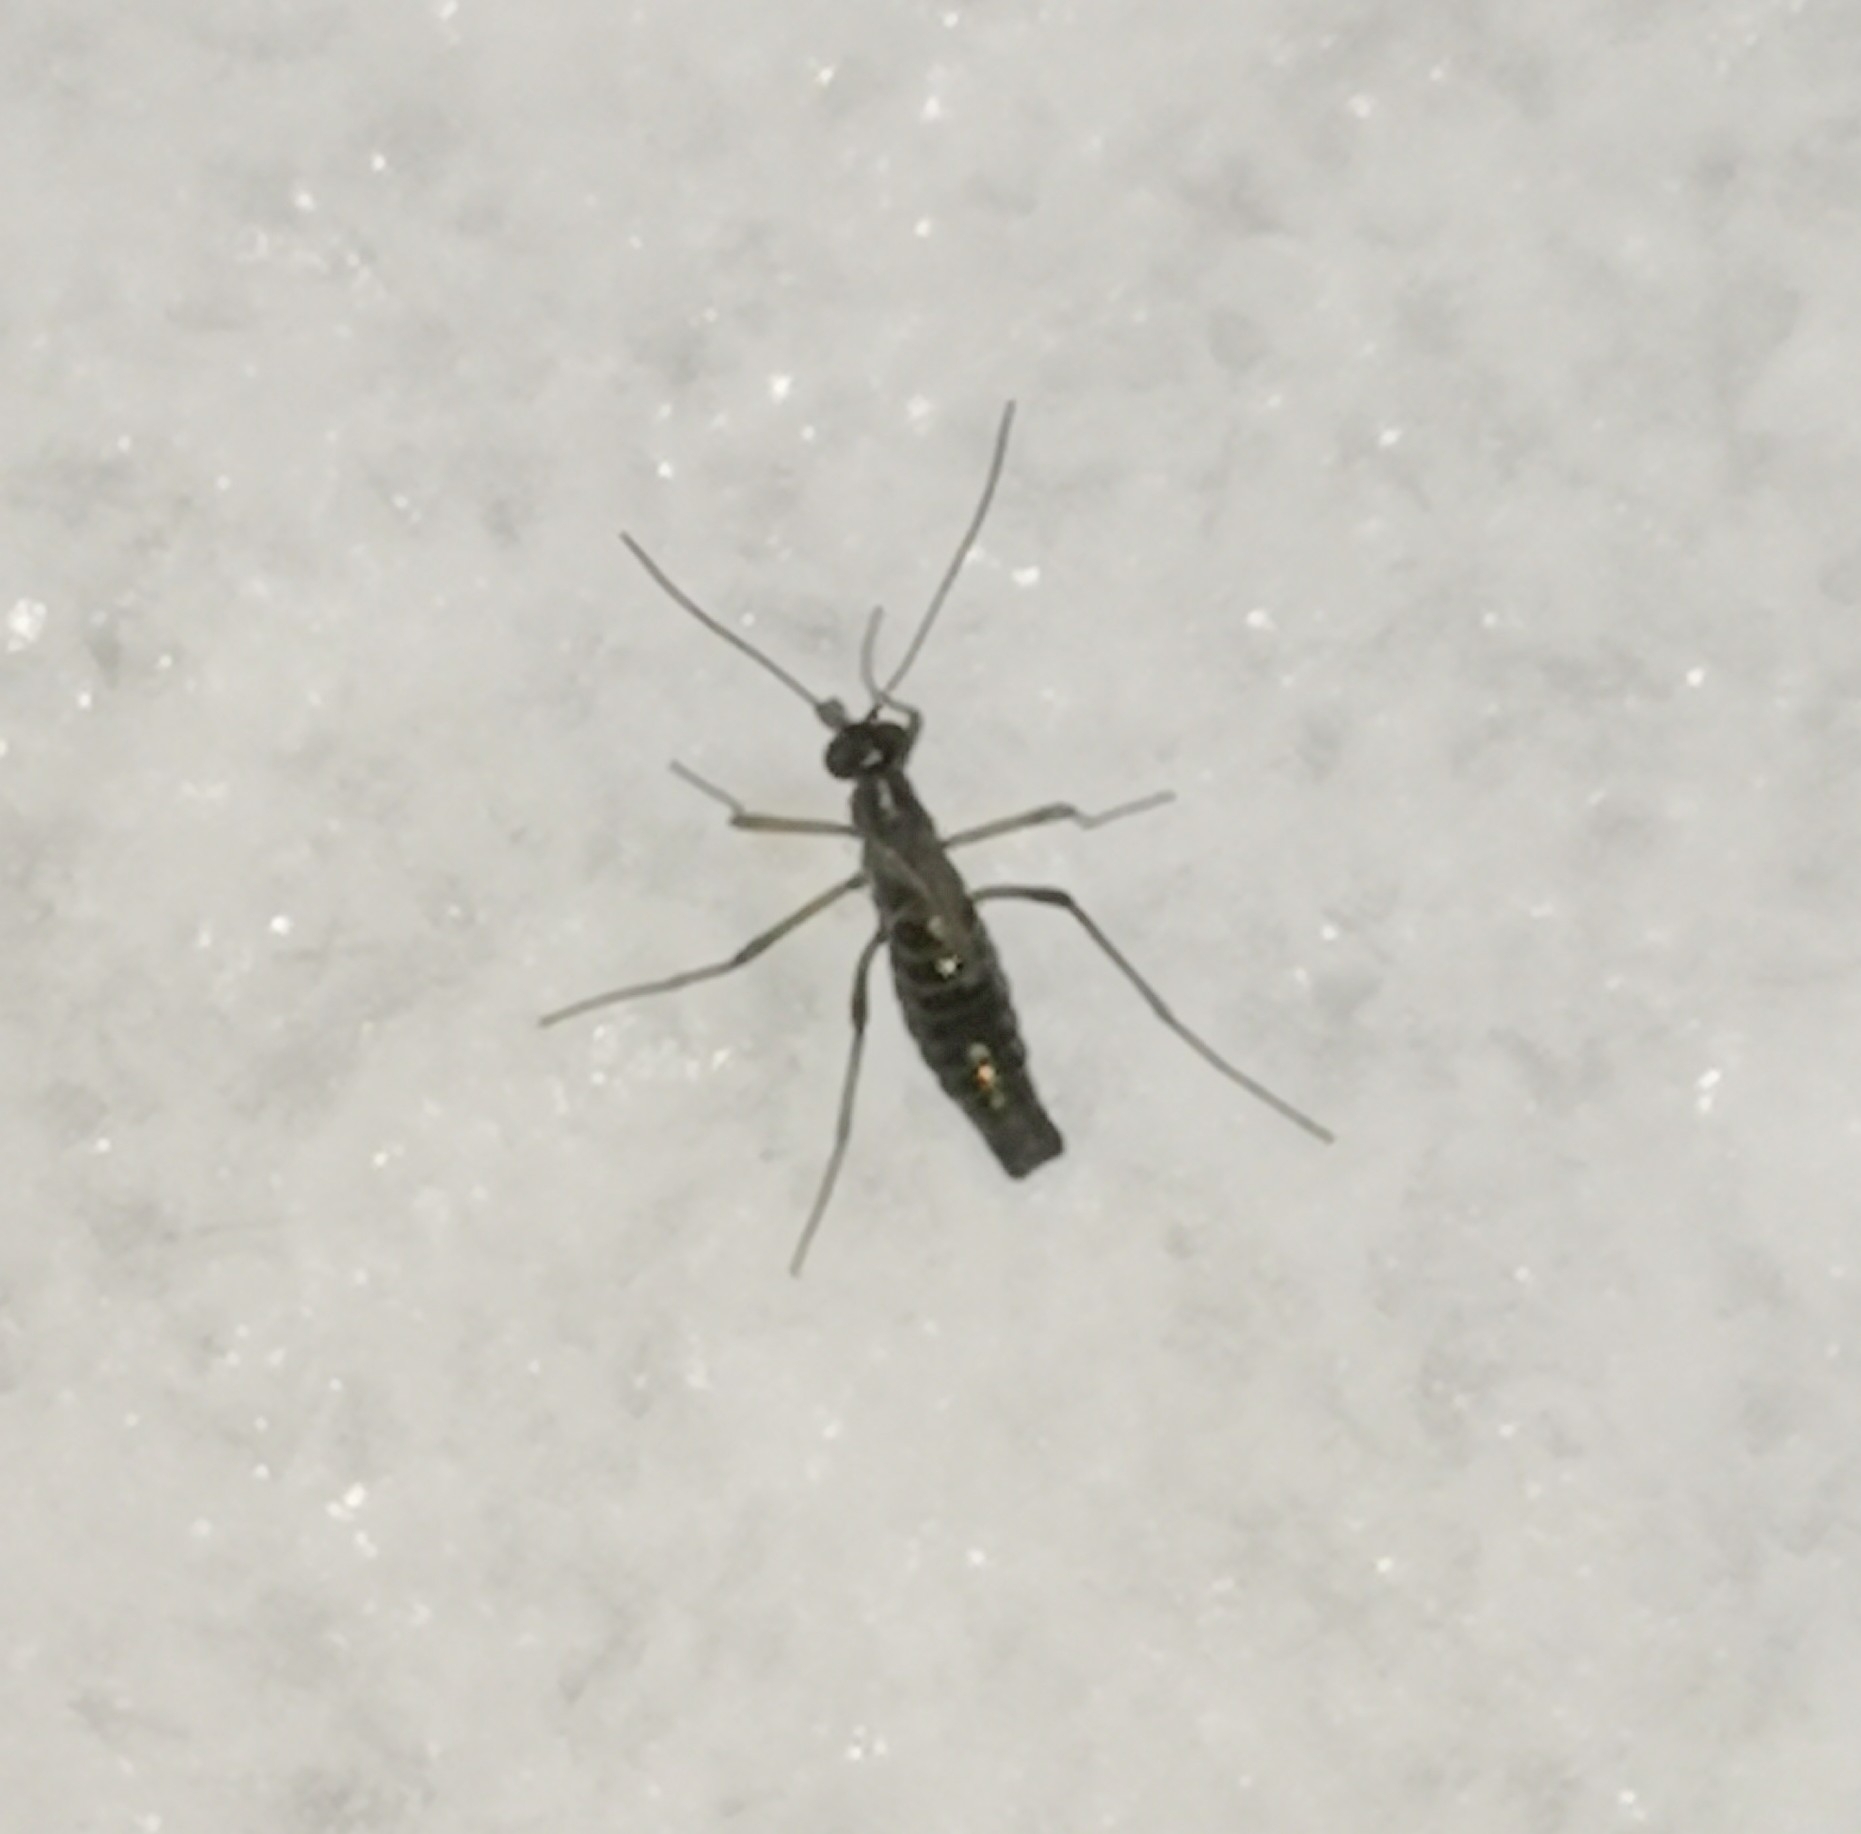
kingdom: Animalia
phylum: Arthropoda
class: Insecta
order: Mecoptera
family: Boreidae
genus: Boreus
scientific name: Boreus westwoodi
